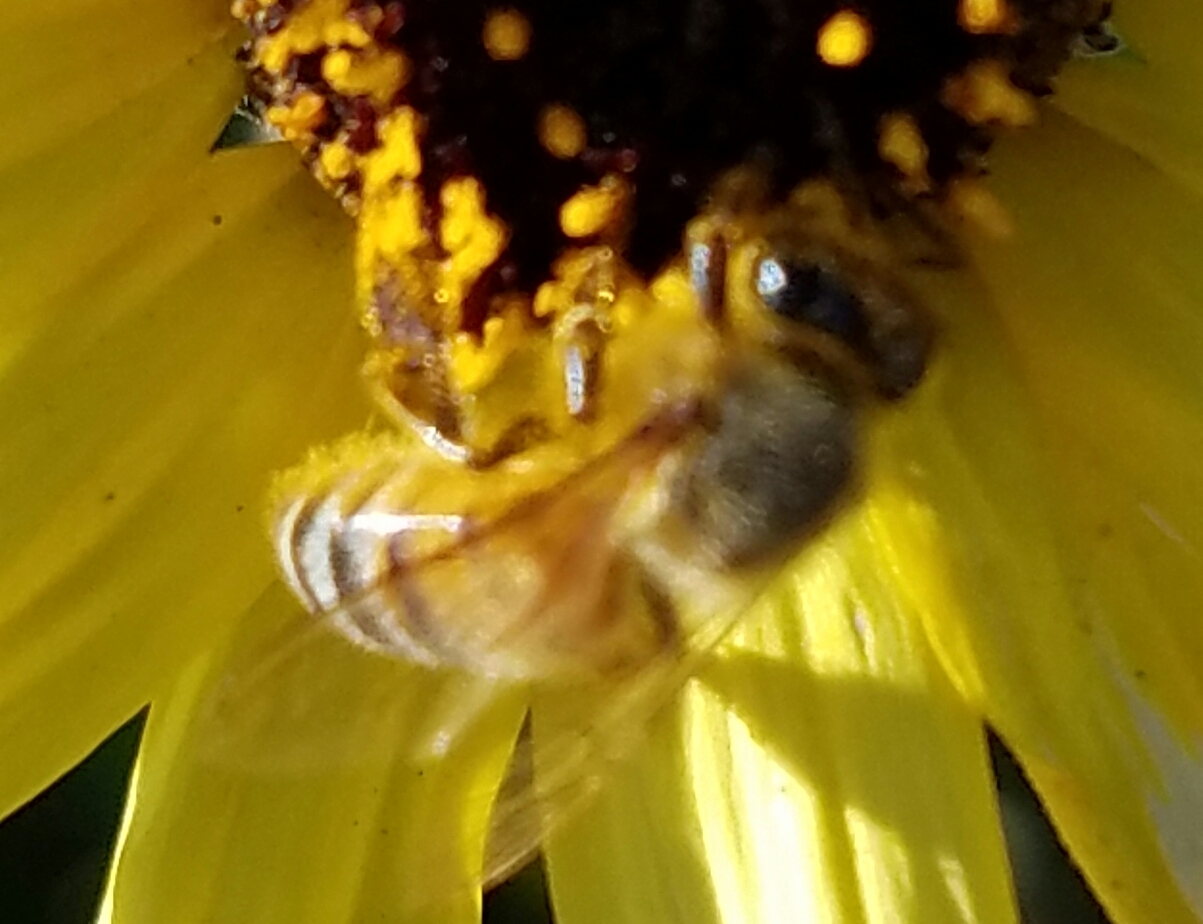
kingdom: Animalia
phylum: Arthropoda
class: Insecta
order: Hymenoptera
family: Apidae
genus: Apis
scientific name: Apis mellifera
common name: Honey bee
